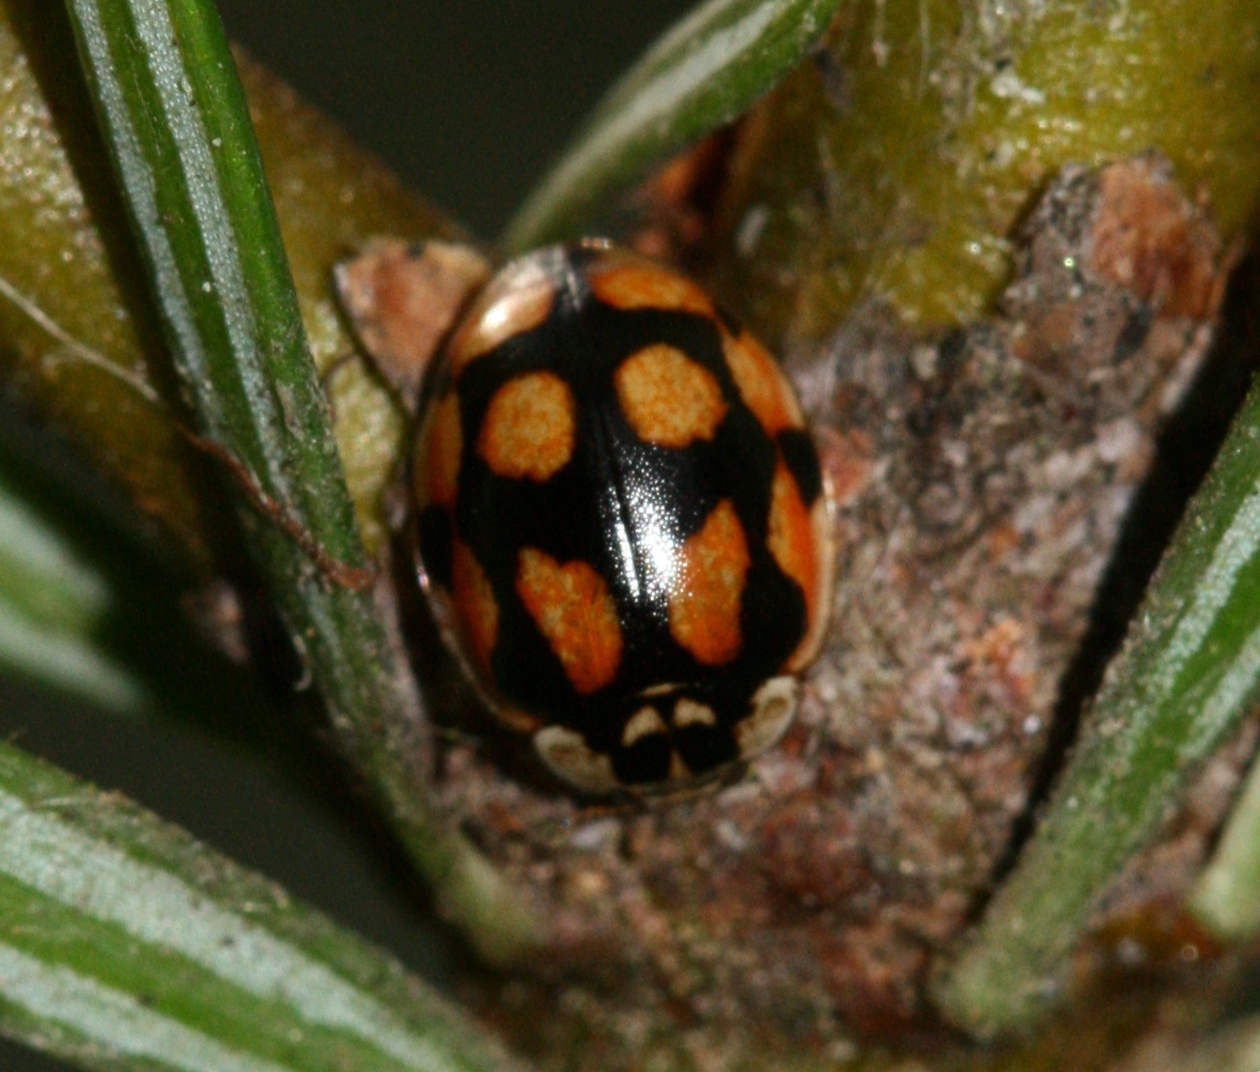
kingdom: Animalia
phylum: Arthropoda
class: Insecta
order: Coleoptera
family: Coccinellidae
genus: Adalia
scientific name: Adalia decempunctata
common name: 10-spot ladybird
